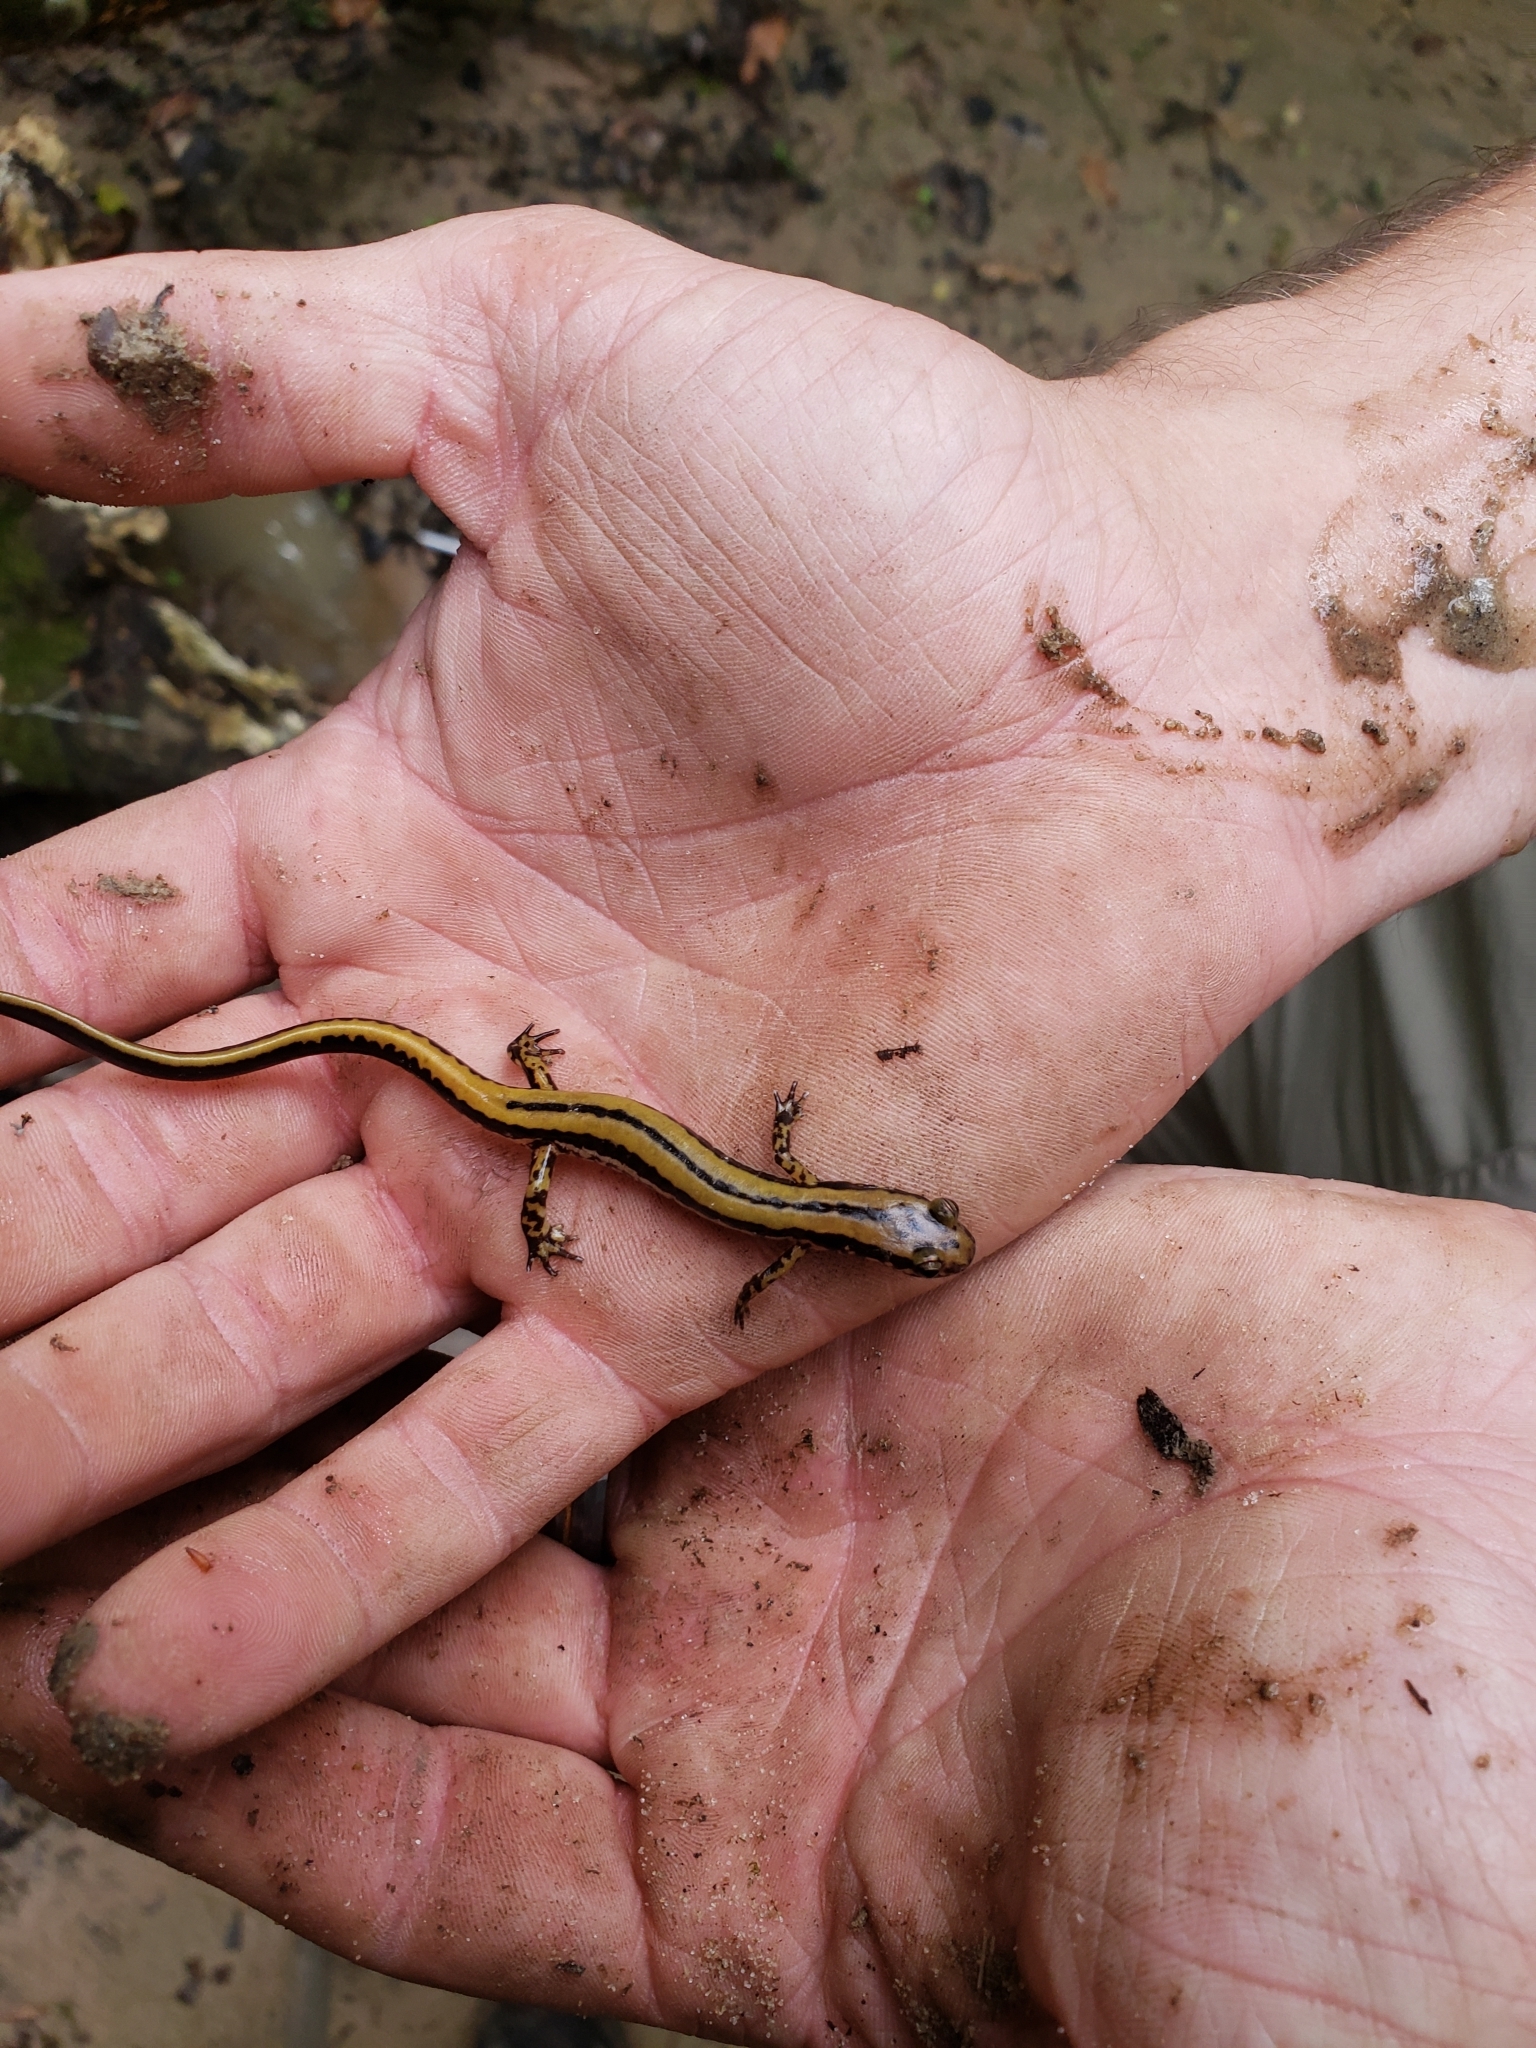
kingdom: Animalia
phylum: Chordata
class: Amphibia
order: Caudata
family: Plethodontidae
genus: Eurycea
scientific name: Eurycea guttolineata
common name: Three-lined salamander
